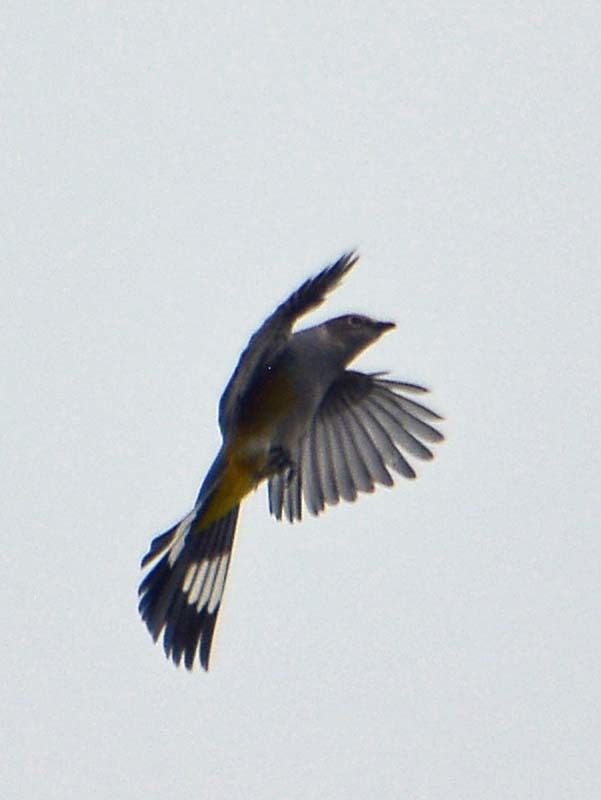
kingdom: Animalia
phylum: Chordata
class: Aves
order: Passeriformes
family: Ptilogonatidae
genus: Ptilogonys
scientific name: Ptilogonys cinereus
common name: Gray silky-flycatcher
